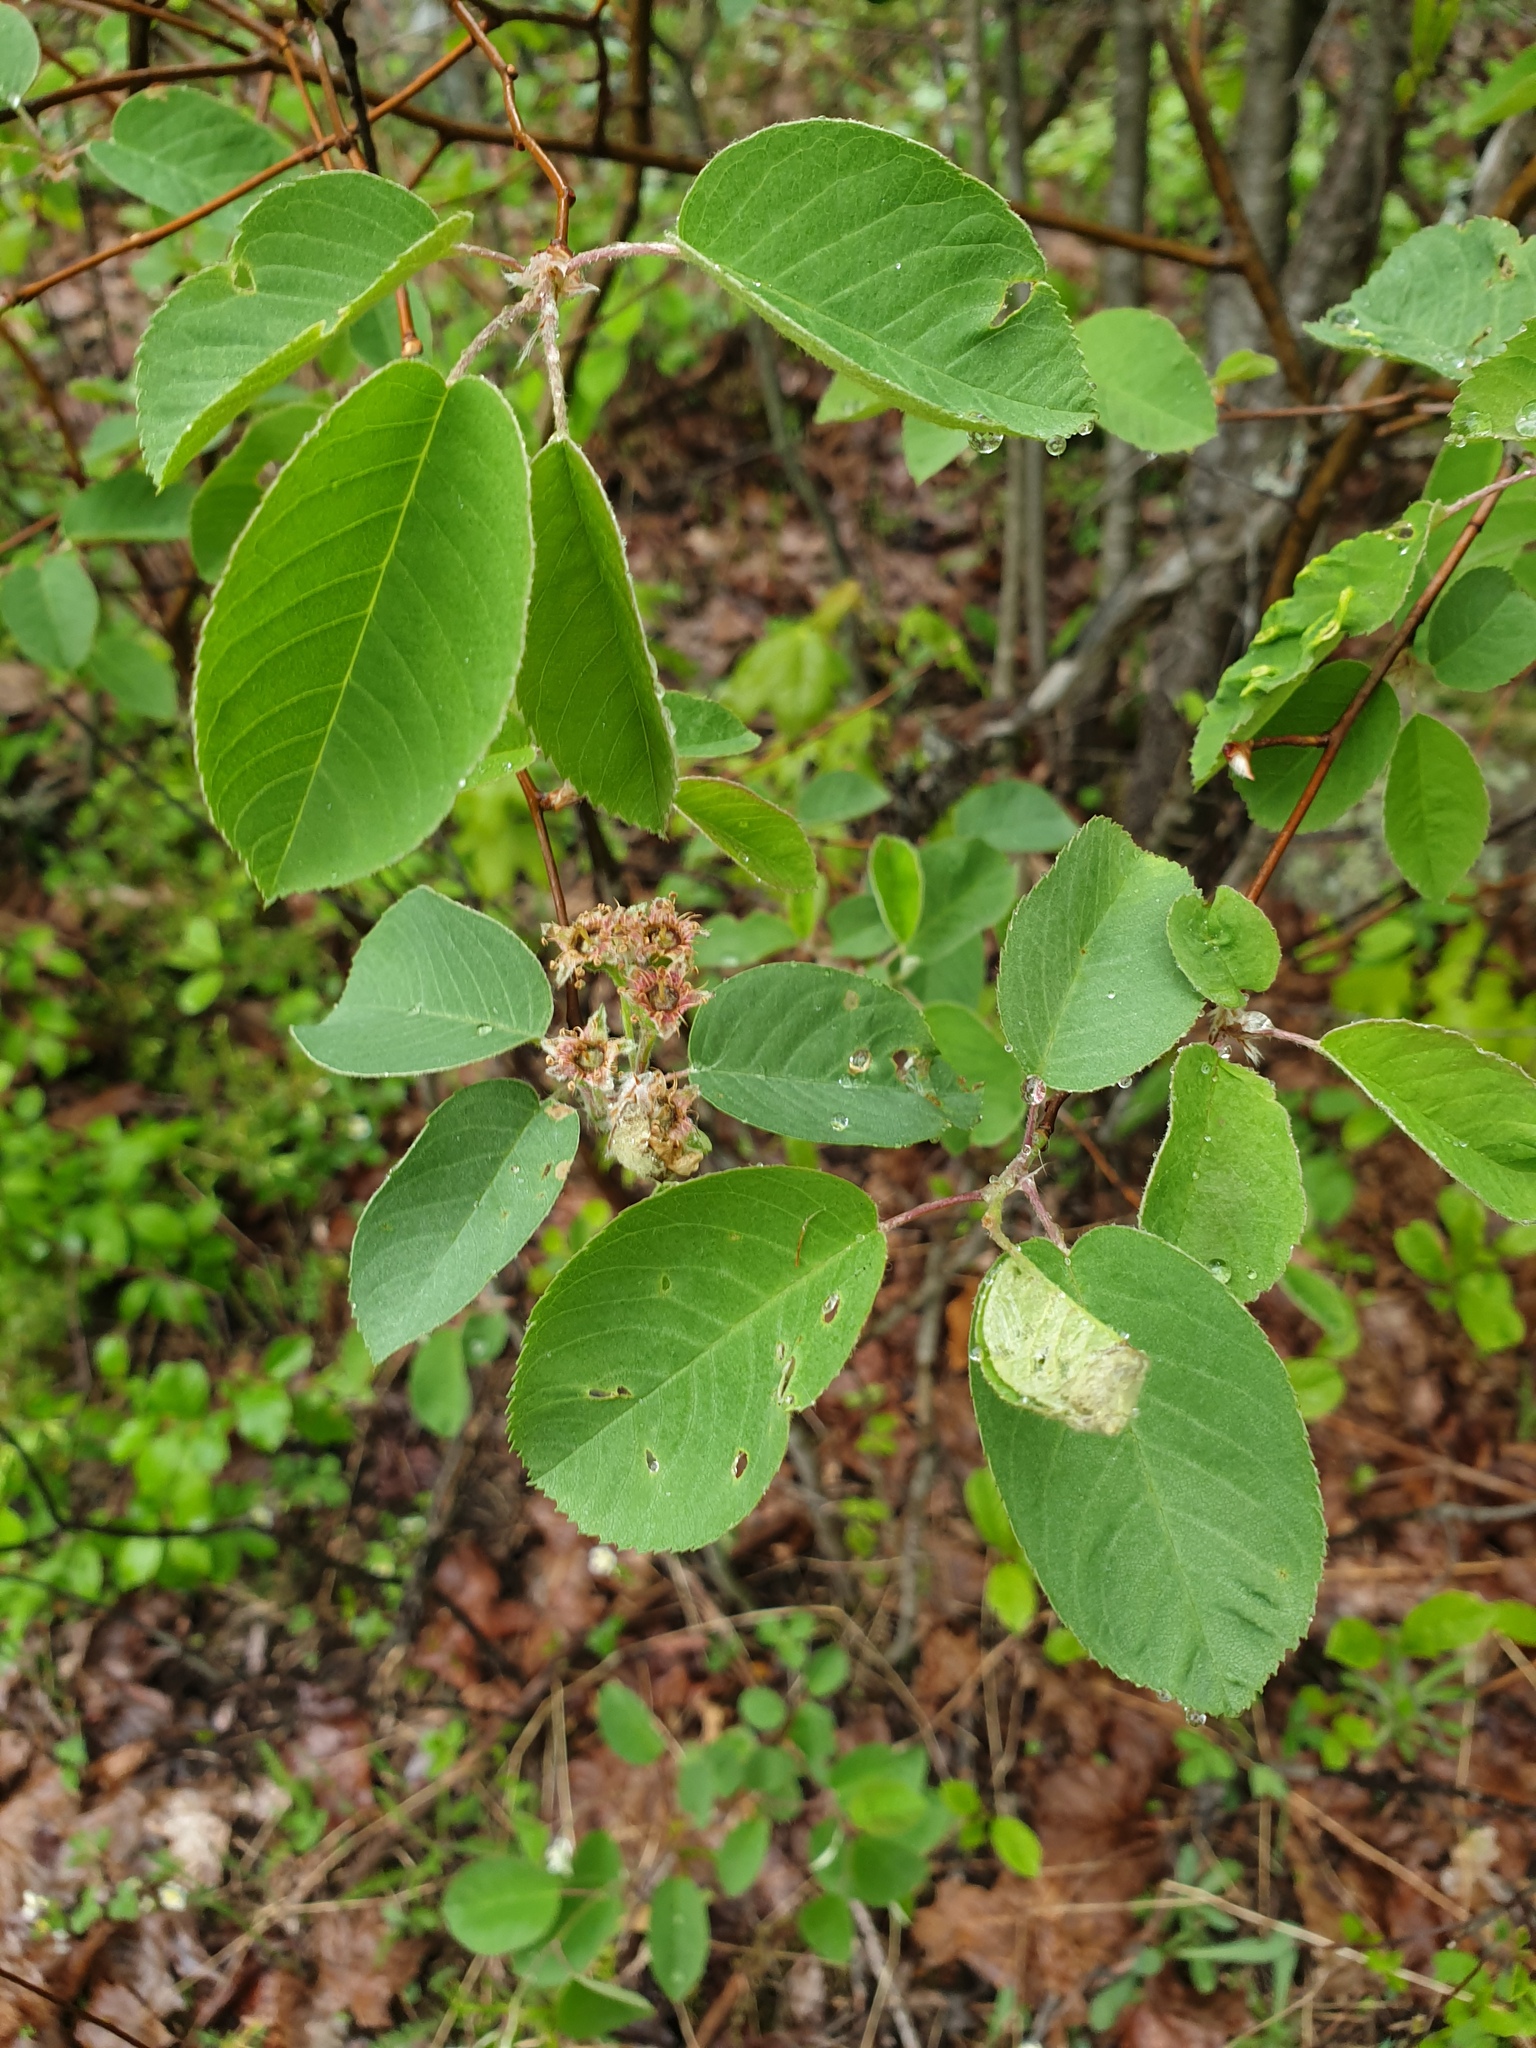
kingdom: Plantae
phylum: Tracheophyta
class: Magnoliopsida
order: Rosales
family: Rosaceae
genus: Amelanchier
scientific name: Amelanchier humilis
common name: Low juneberry
